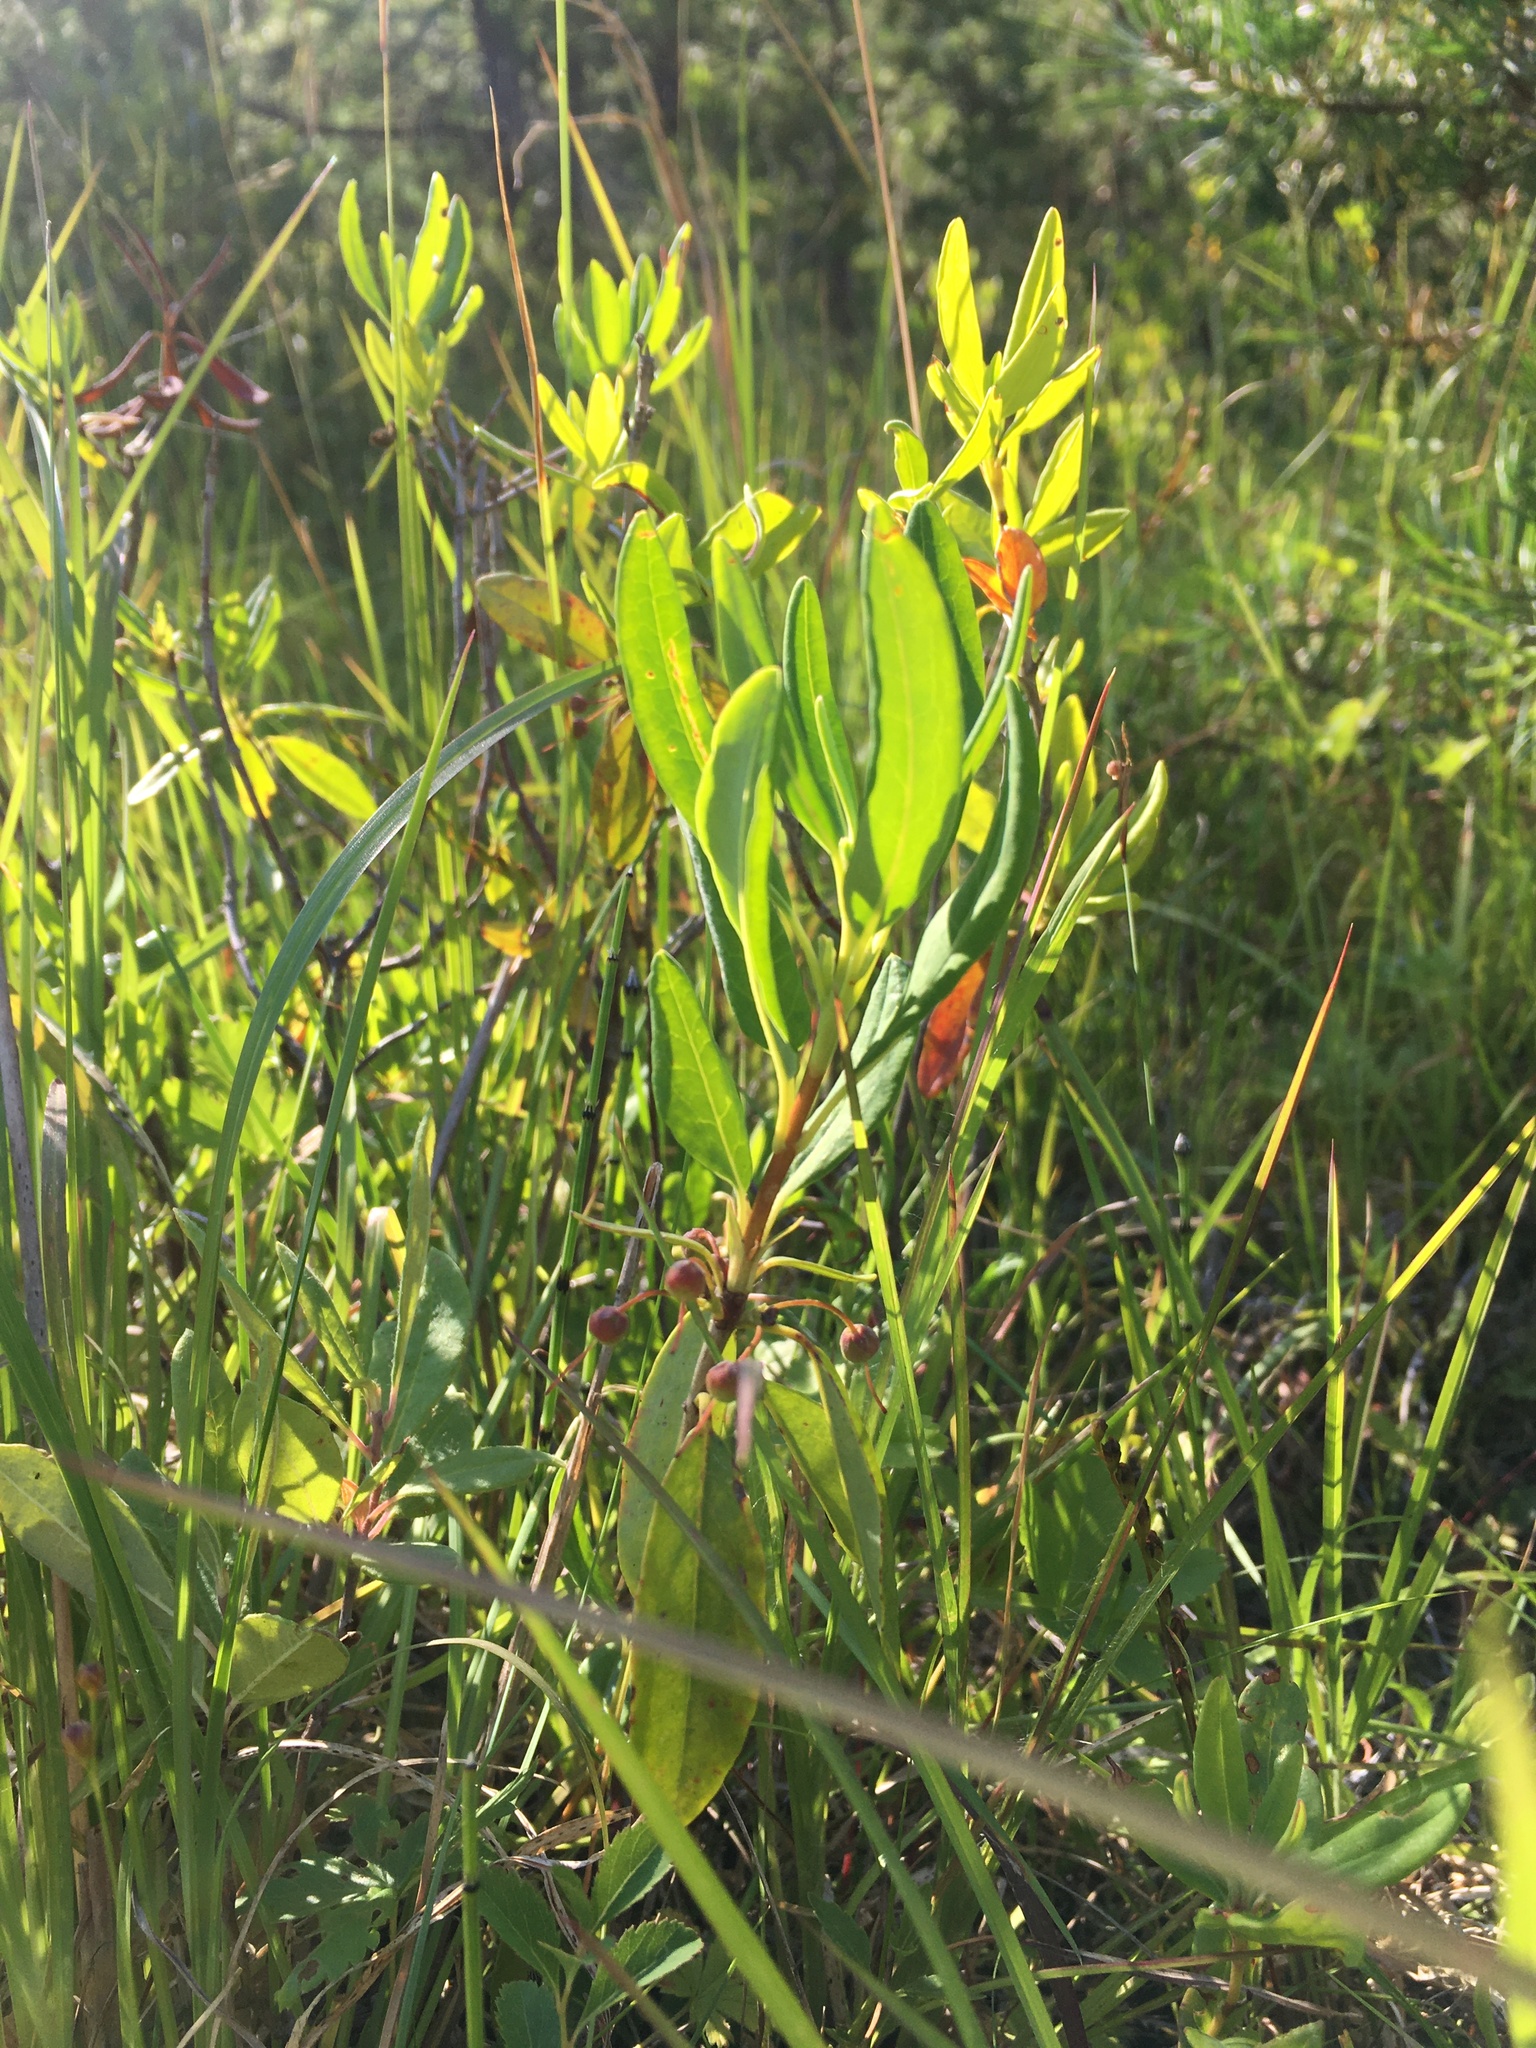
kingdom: Plantae
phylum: Tracheophyta
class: Magnoliopsida
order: Ericales
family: Ericaceae
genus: Kalmia
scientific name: Kalmia angustifolia
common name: Sheep-laurel
